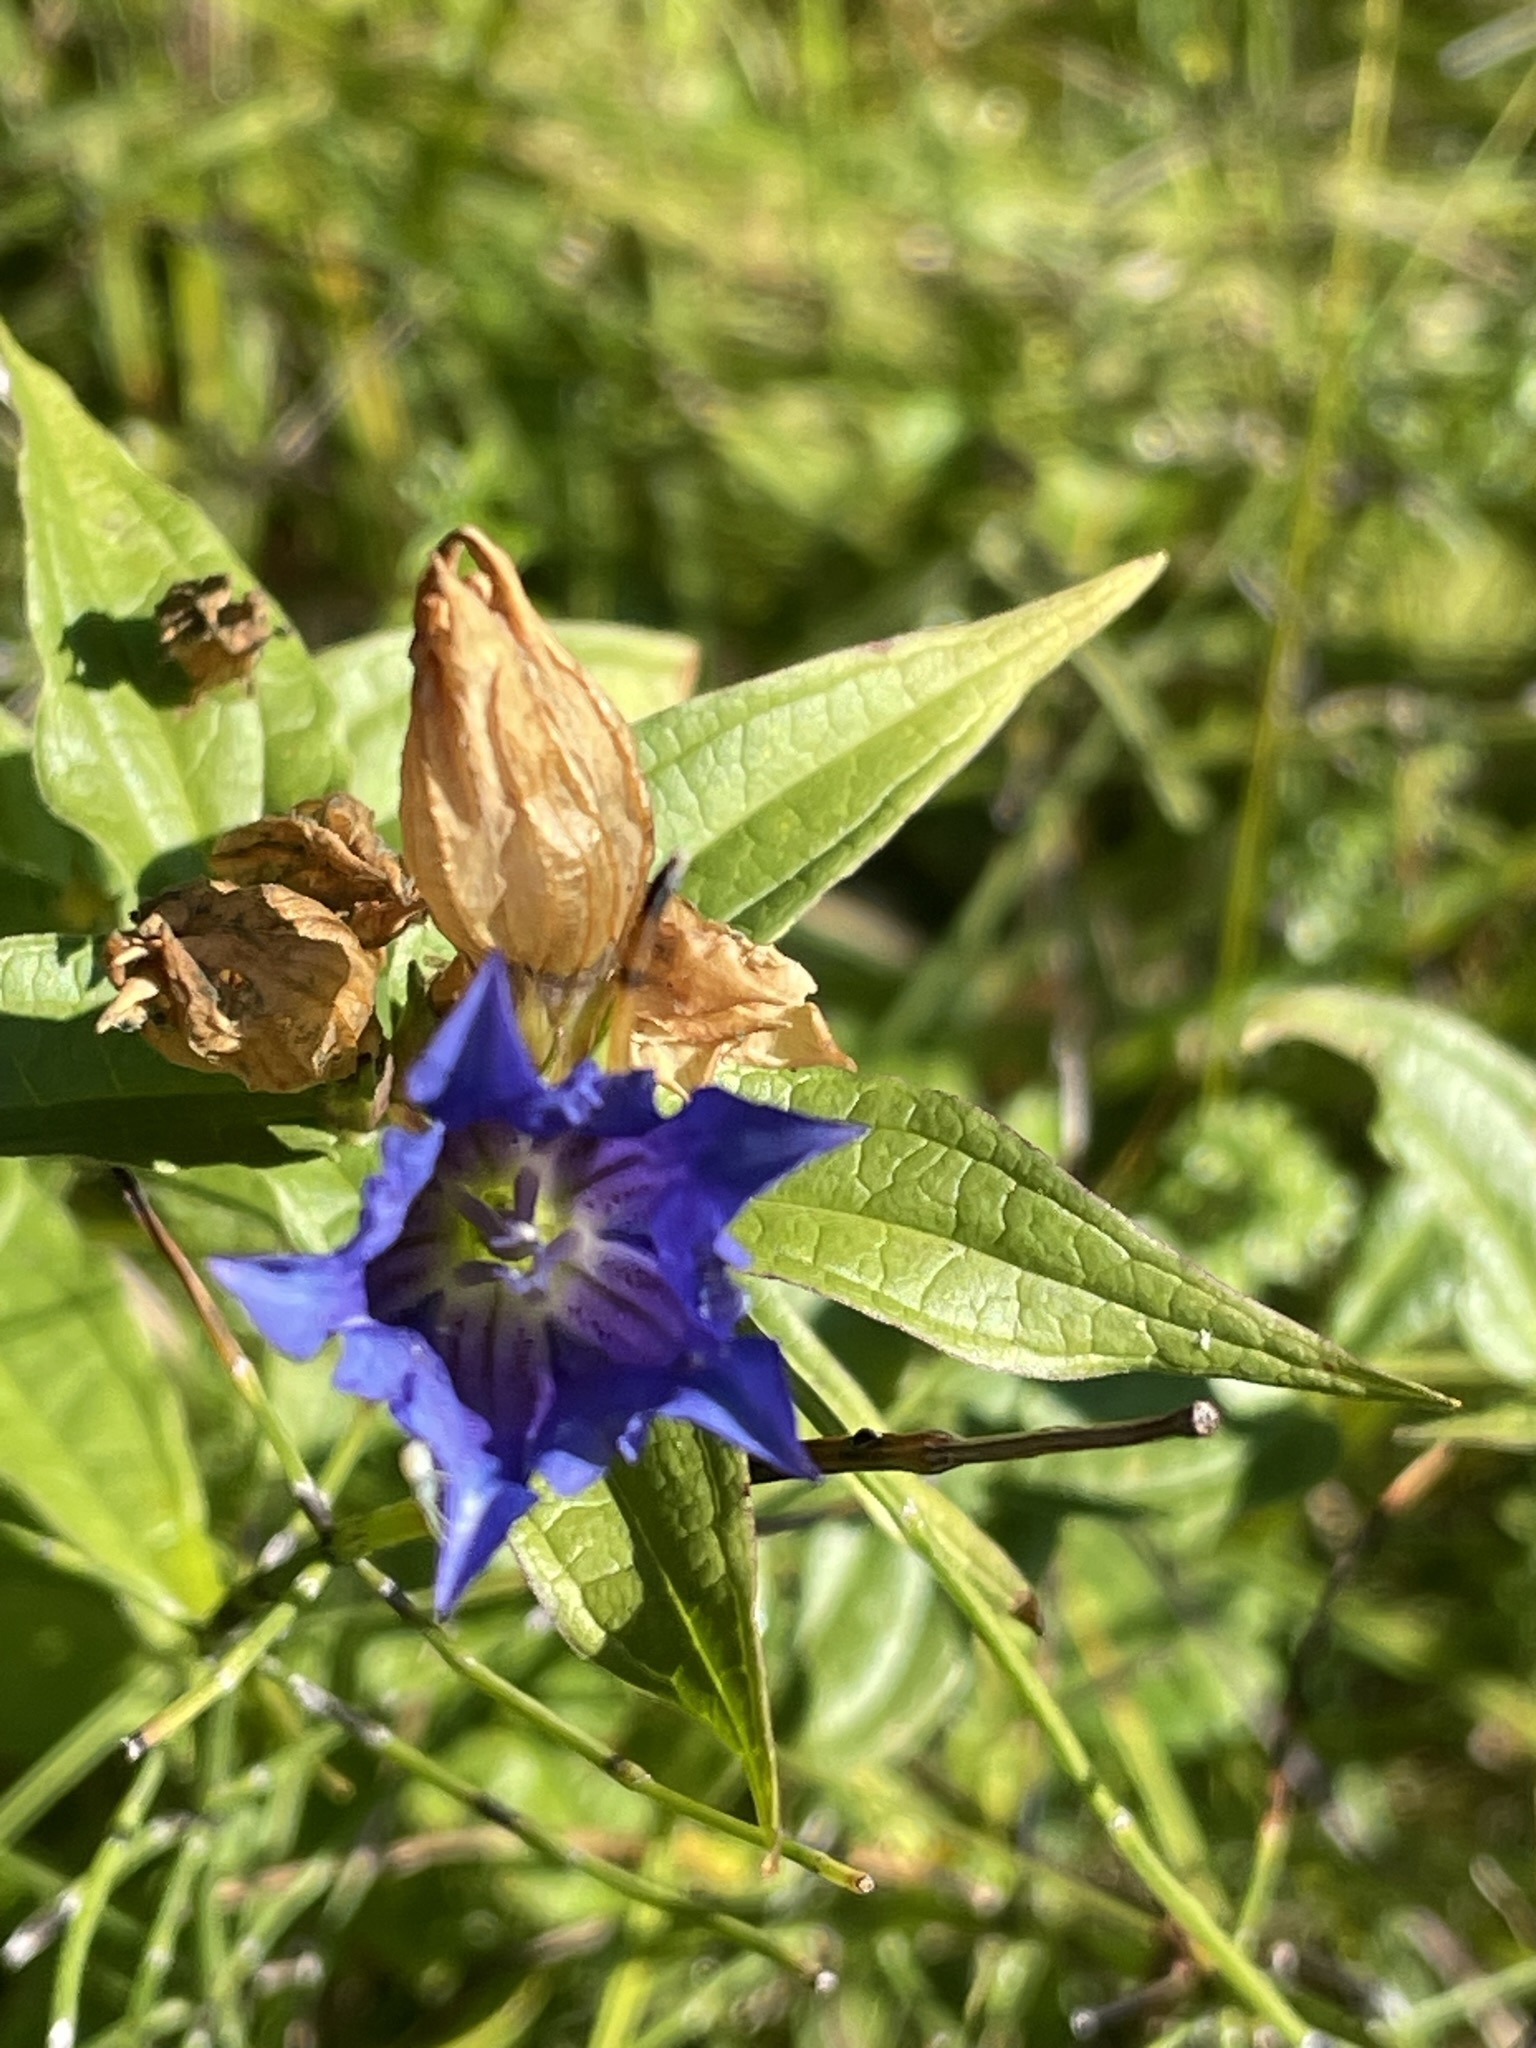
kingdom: Plantae
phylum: Tracheophyta
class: Magnoliopsida
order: Gentianales
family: Gentianaceae
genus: Gentiana
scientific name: Gentiana asclepiadea
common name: Willow gentian
